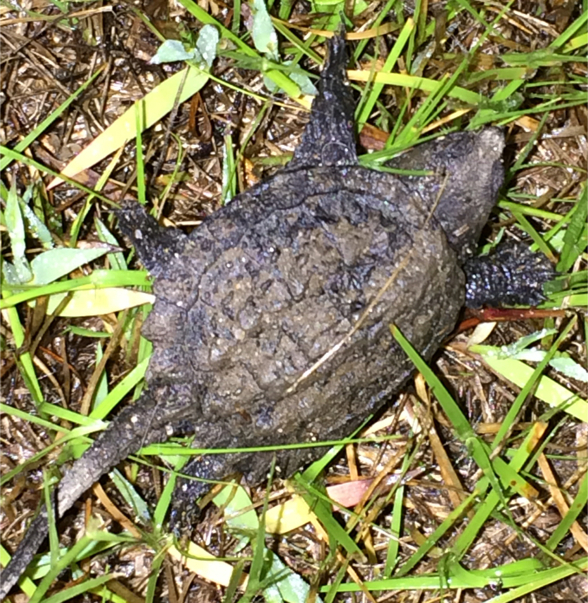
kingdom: Animalia
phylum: Chordata
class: Testudines
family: Chelydridae
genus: Chelydra
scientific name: Chelydra serpentina
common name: Common snapping turtle
